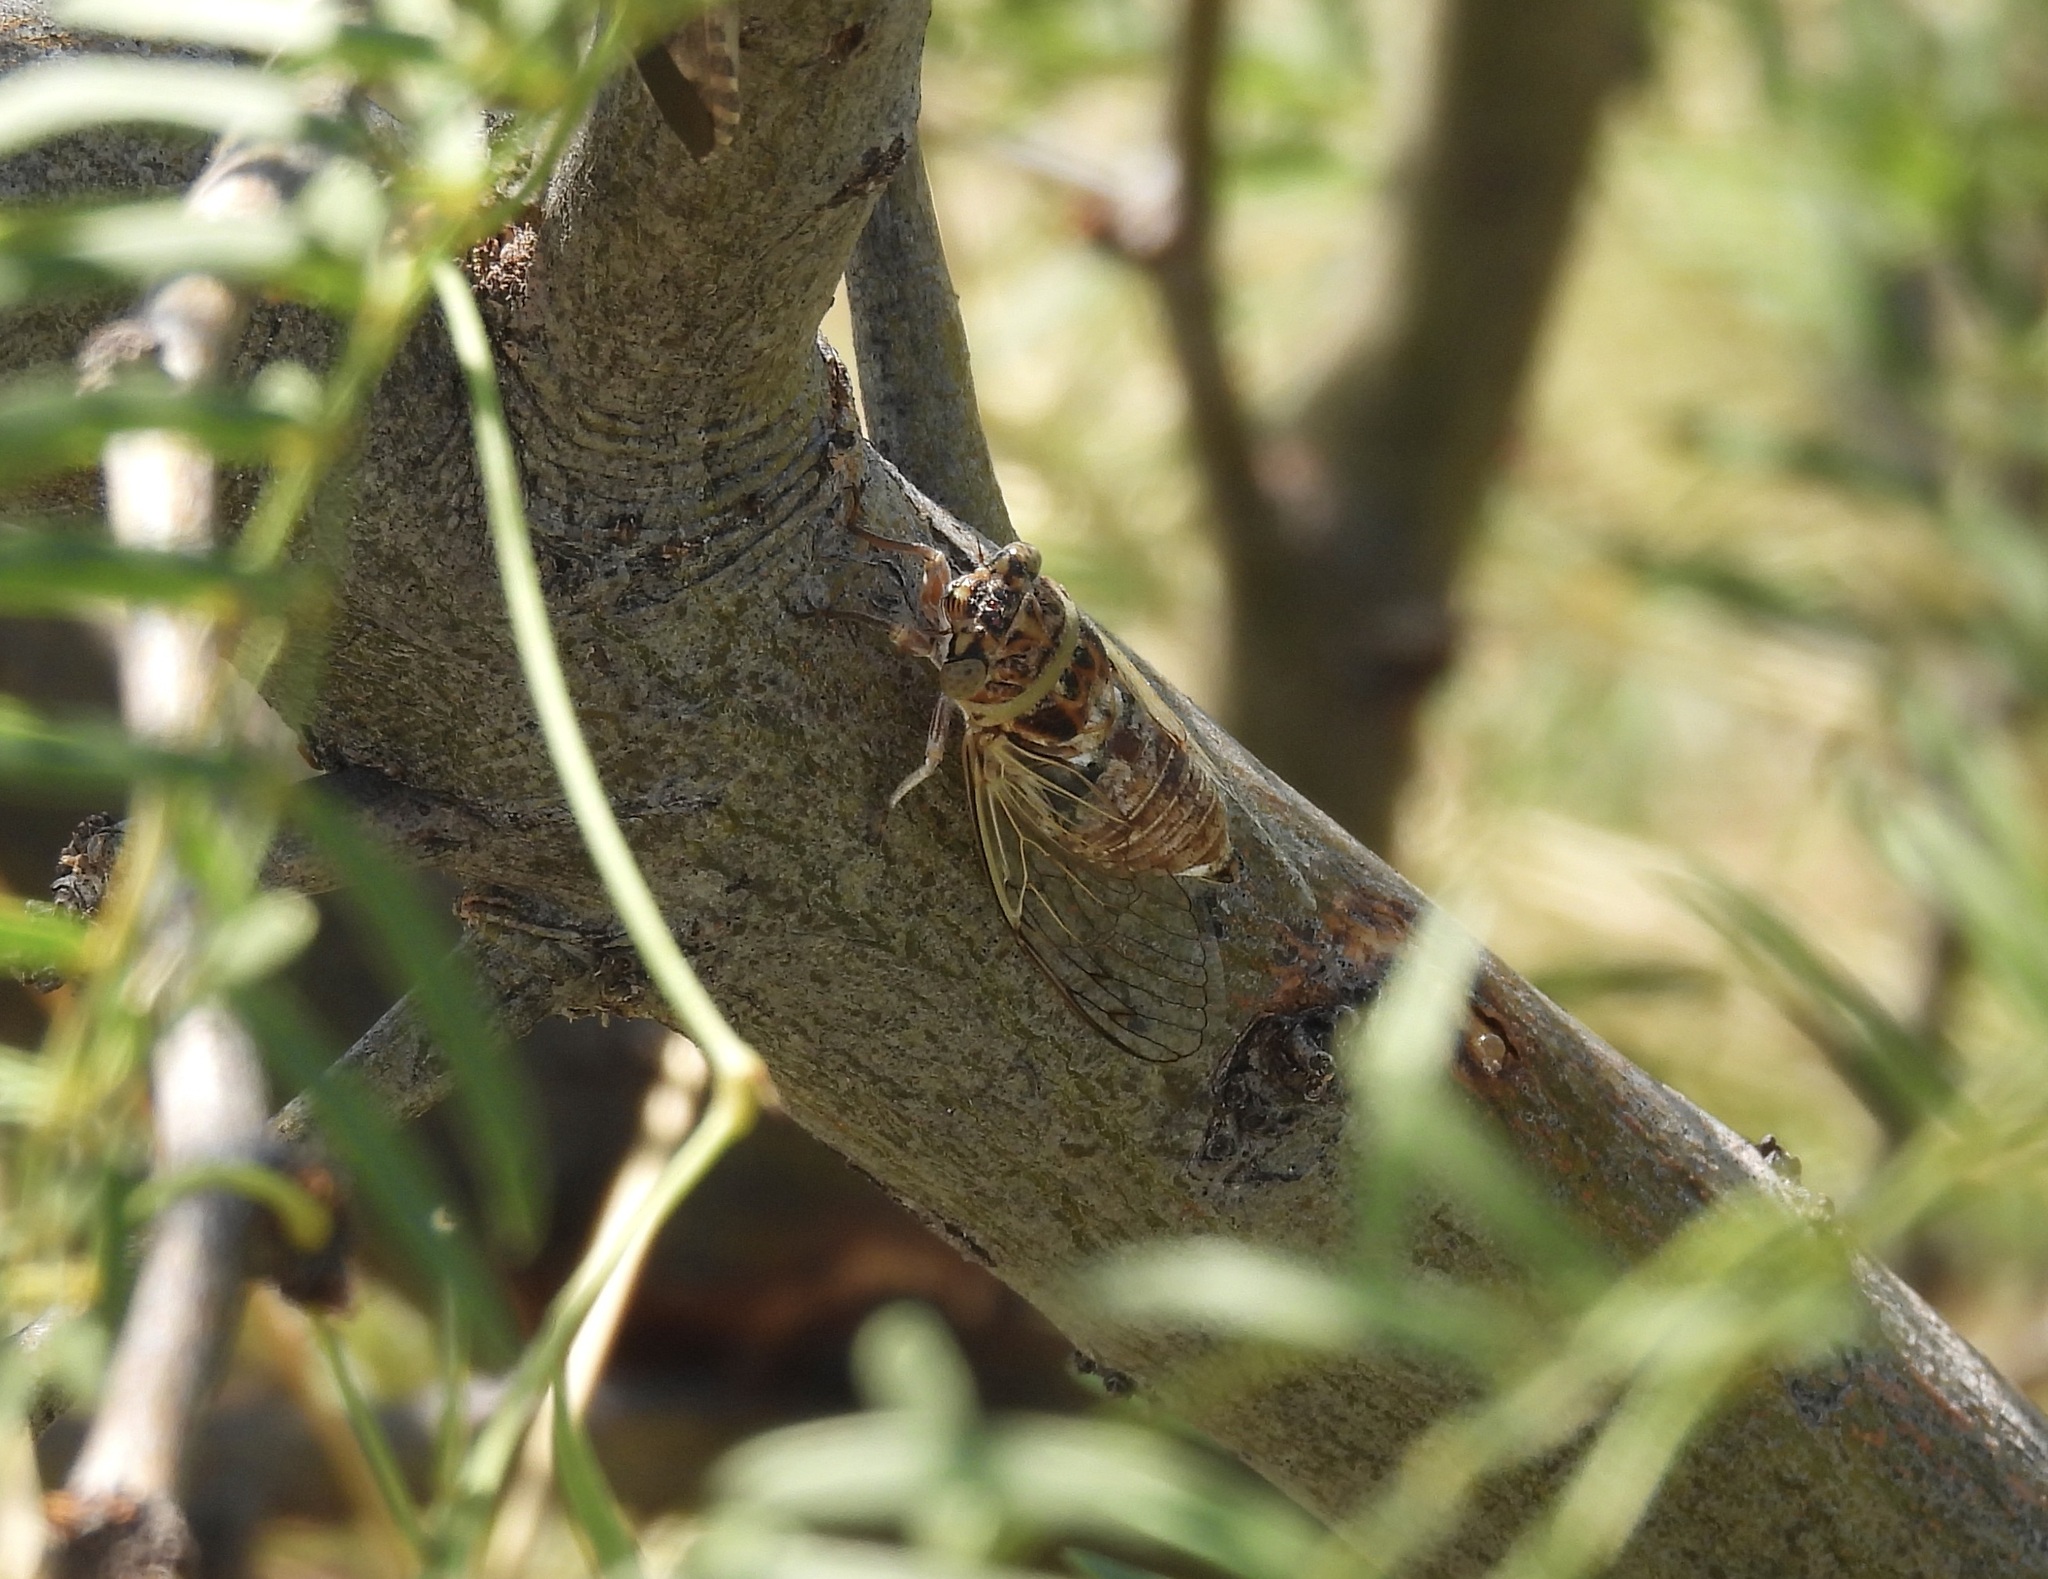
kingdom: Animalia
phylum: Arthropoda
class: Insecta
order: Hemiptera
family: Cicadidae
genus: Diceroprocta
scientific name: Diceroprocta texana
